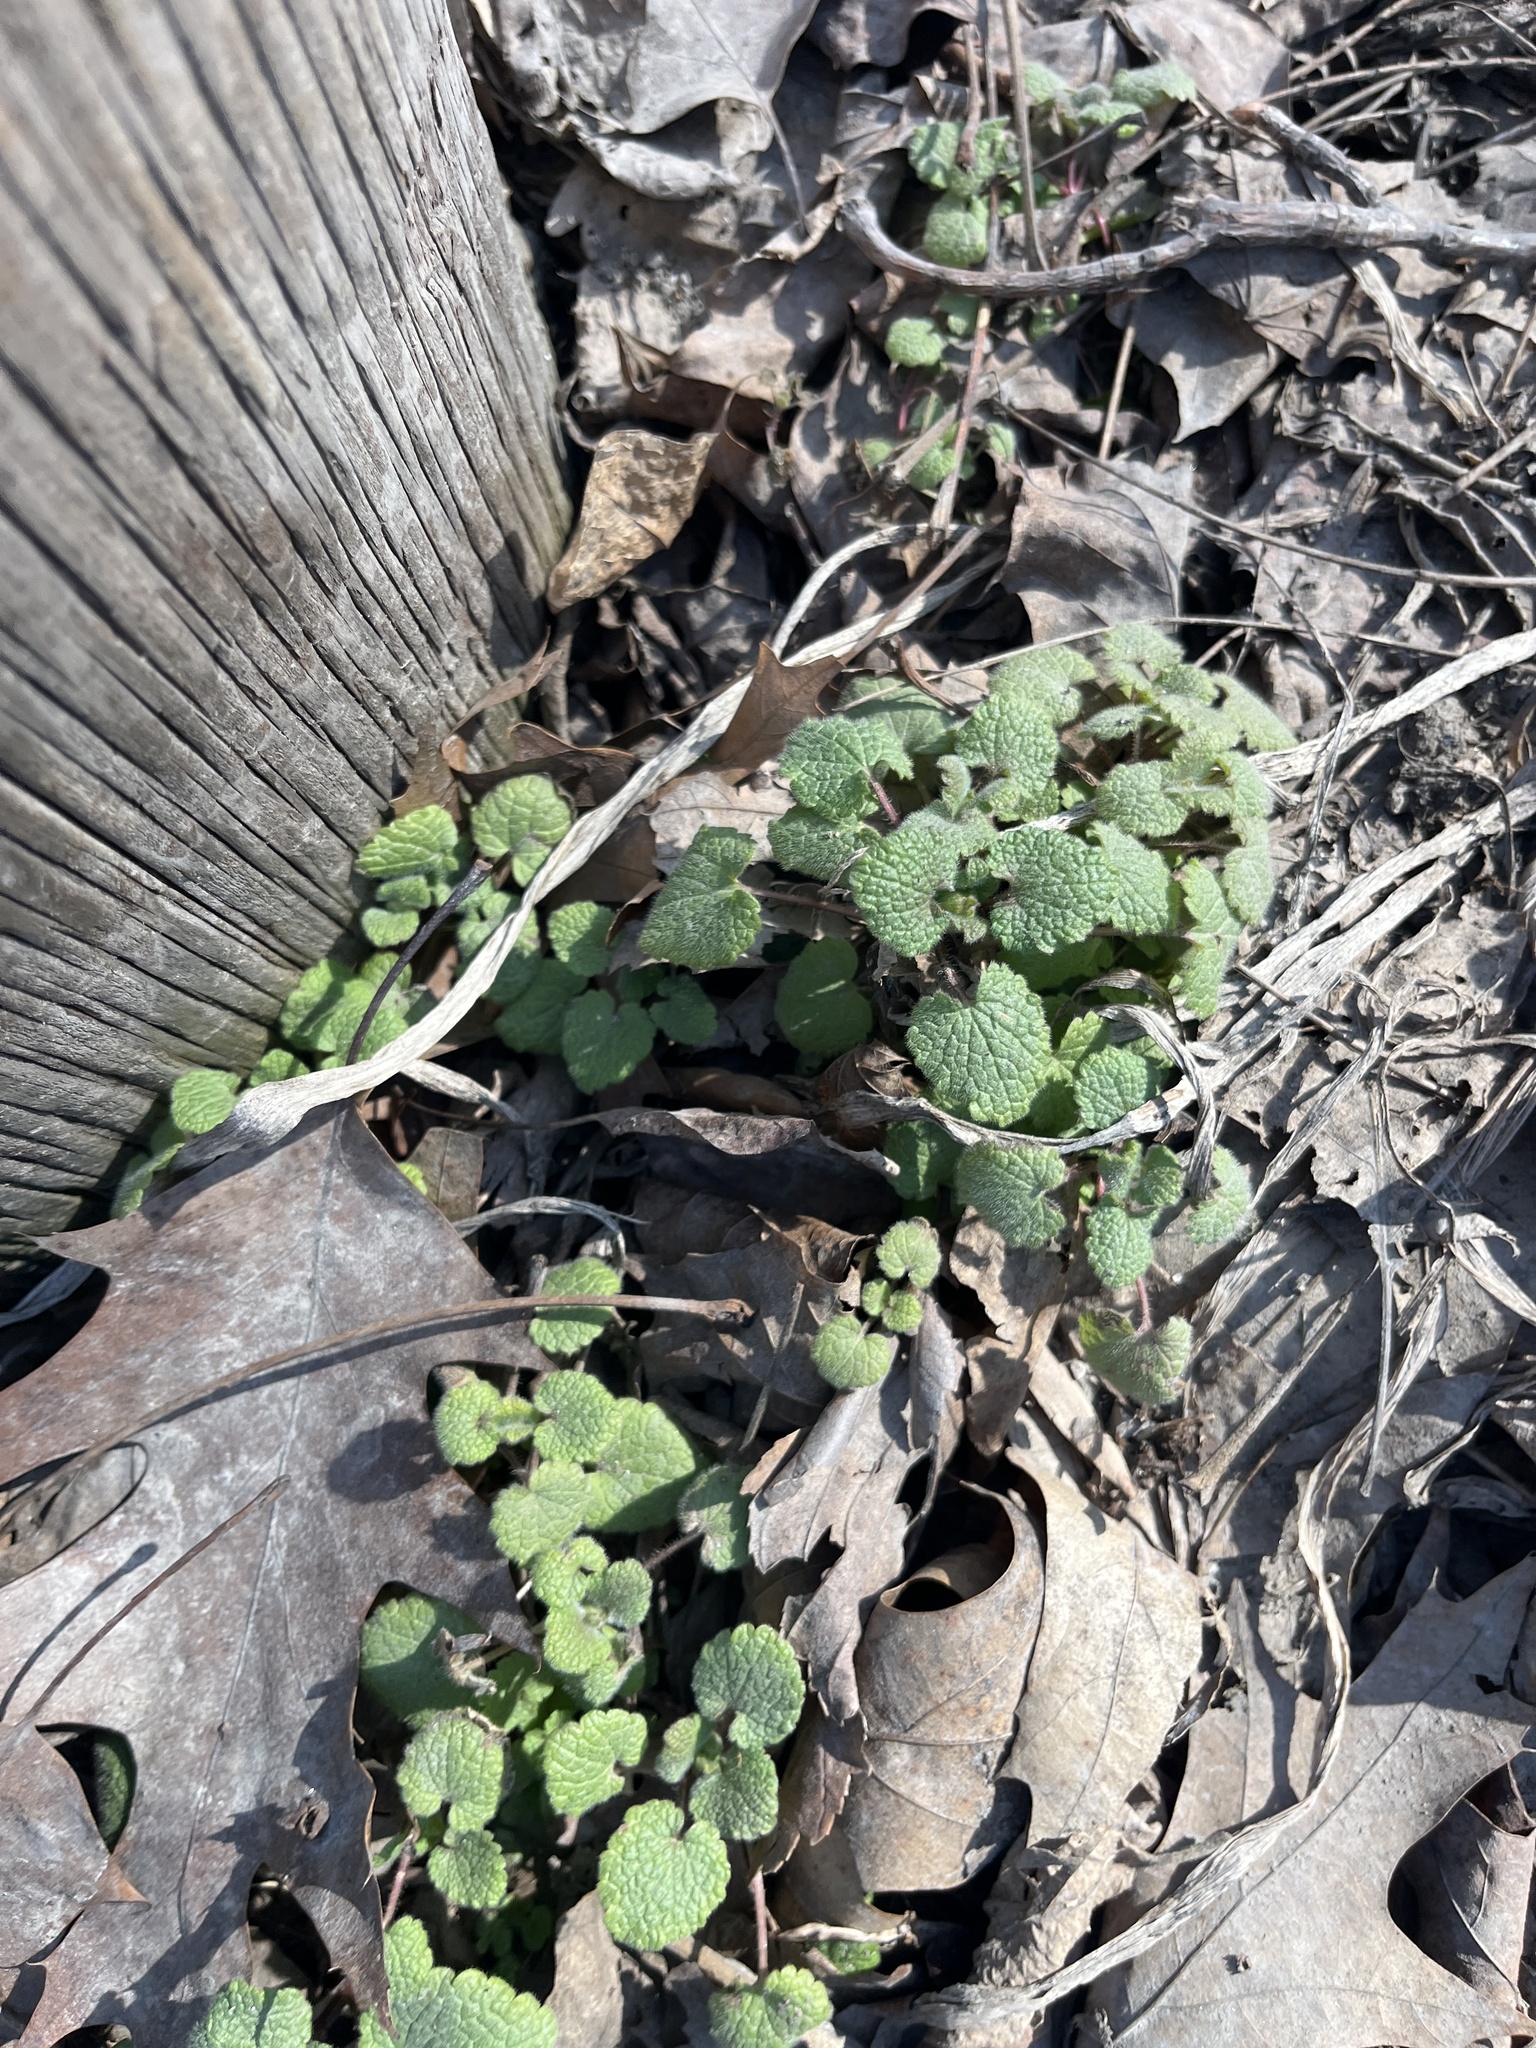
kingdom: Plantae
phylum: Tracheophyta
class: Magnoliopsida
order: Lamiales
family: Lamiaceae
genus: Lamium
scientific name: Lamium purpureum
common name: Red dead-nettle
